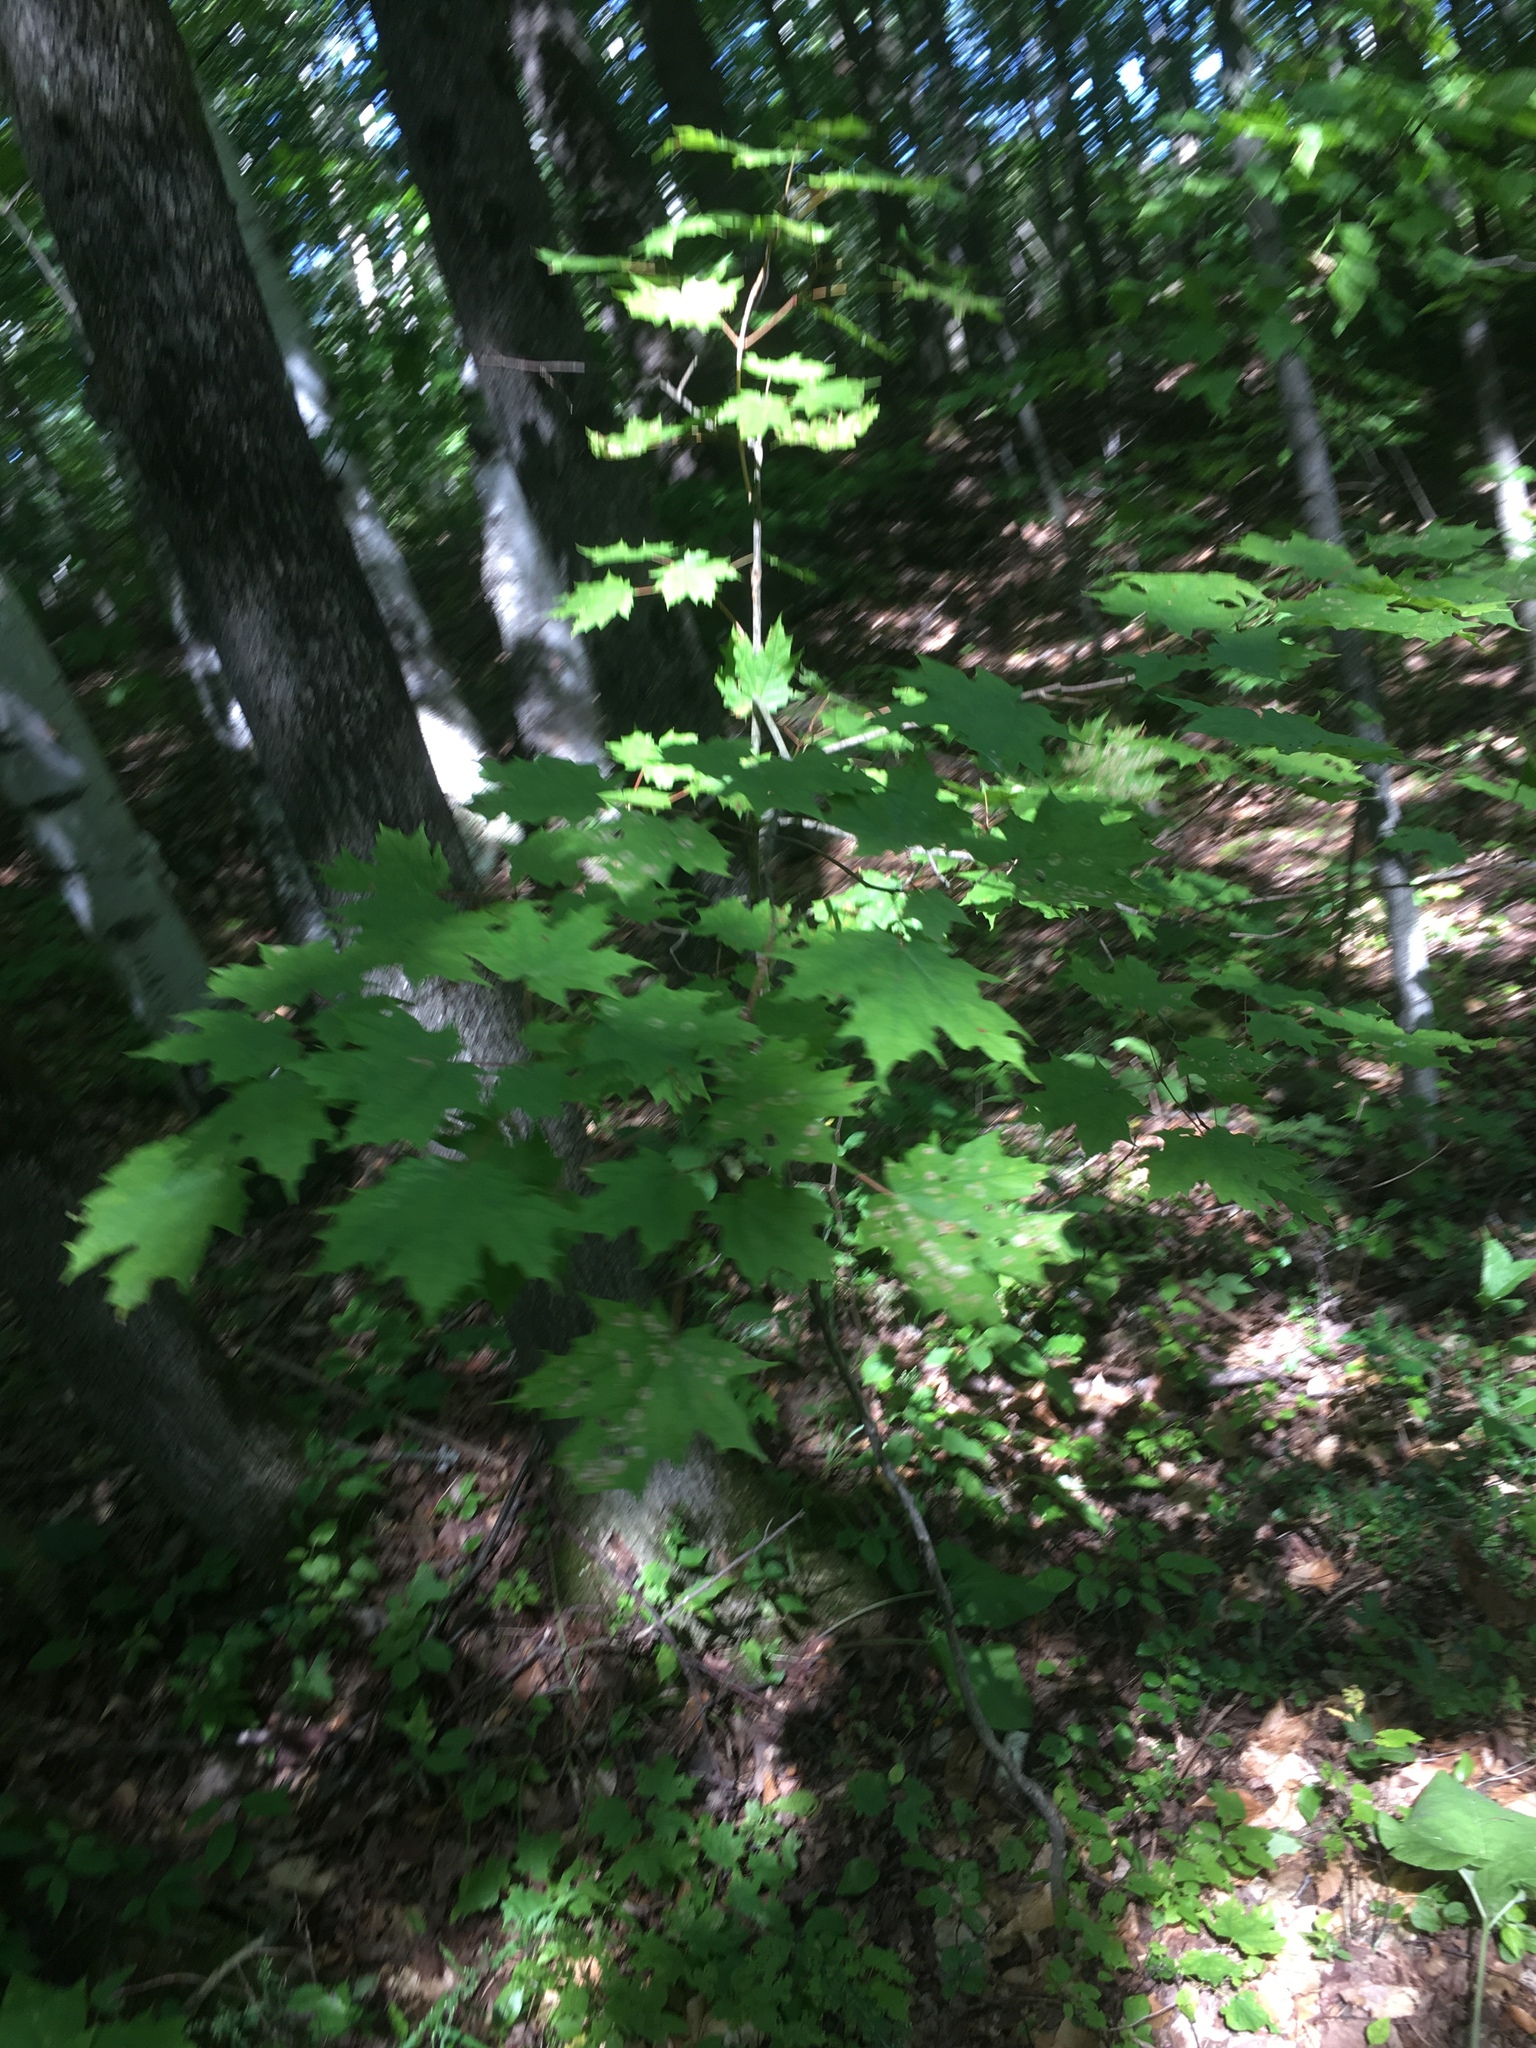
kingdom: Plantae
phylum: Tracheophyta
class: Magnoliopsida
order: Sapindales
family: Sapindaceae
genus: Acer
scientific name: Acer saccharum
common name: Sugar maple
